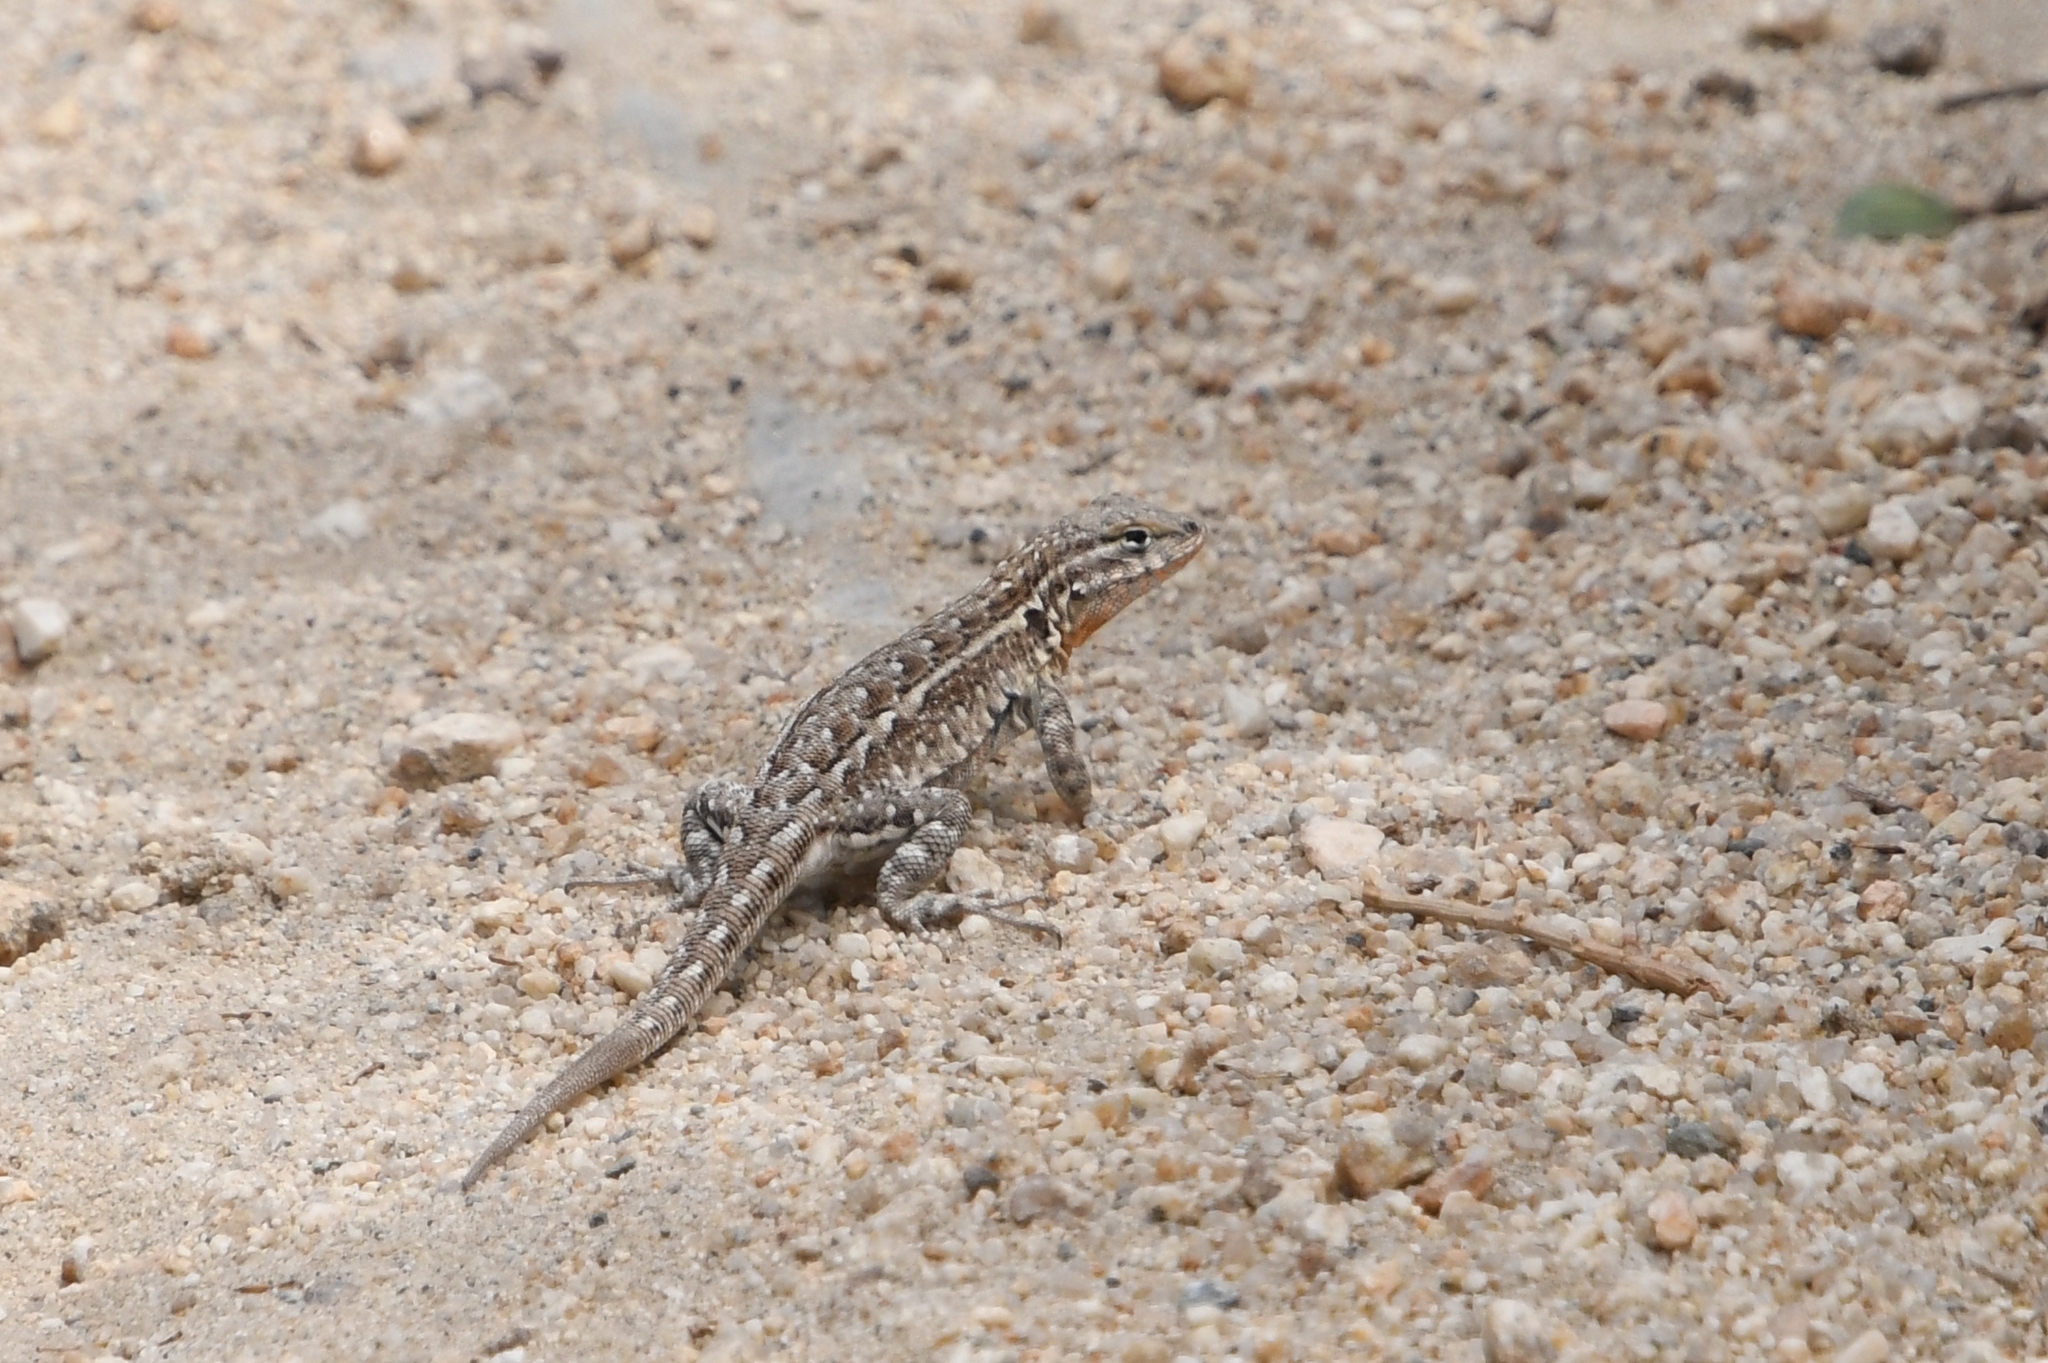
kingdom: Animalia
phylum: Chordata
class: Squamata
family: Phrynosomatidae
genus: Uta
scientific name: Uta stansburiana
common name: Side-blotched lizard
